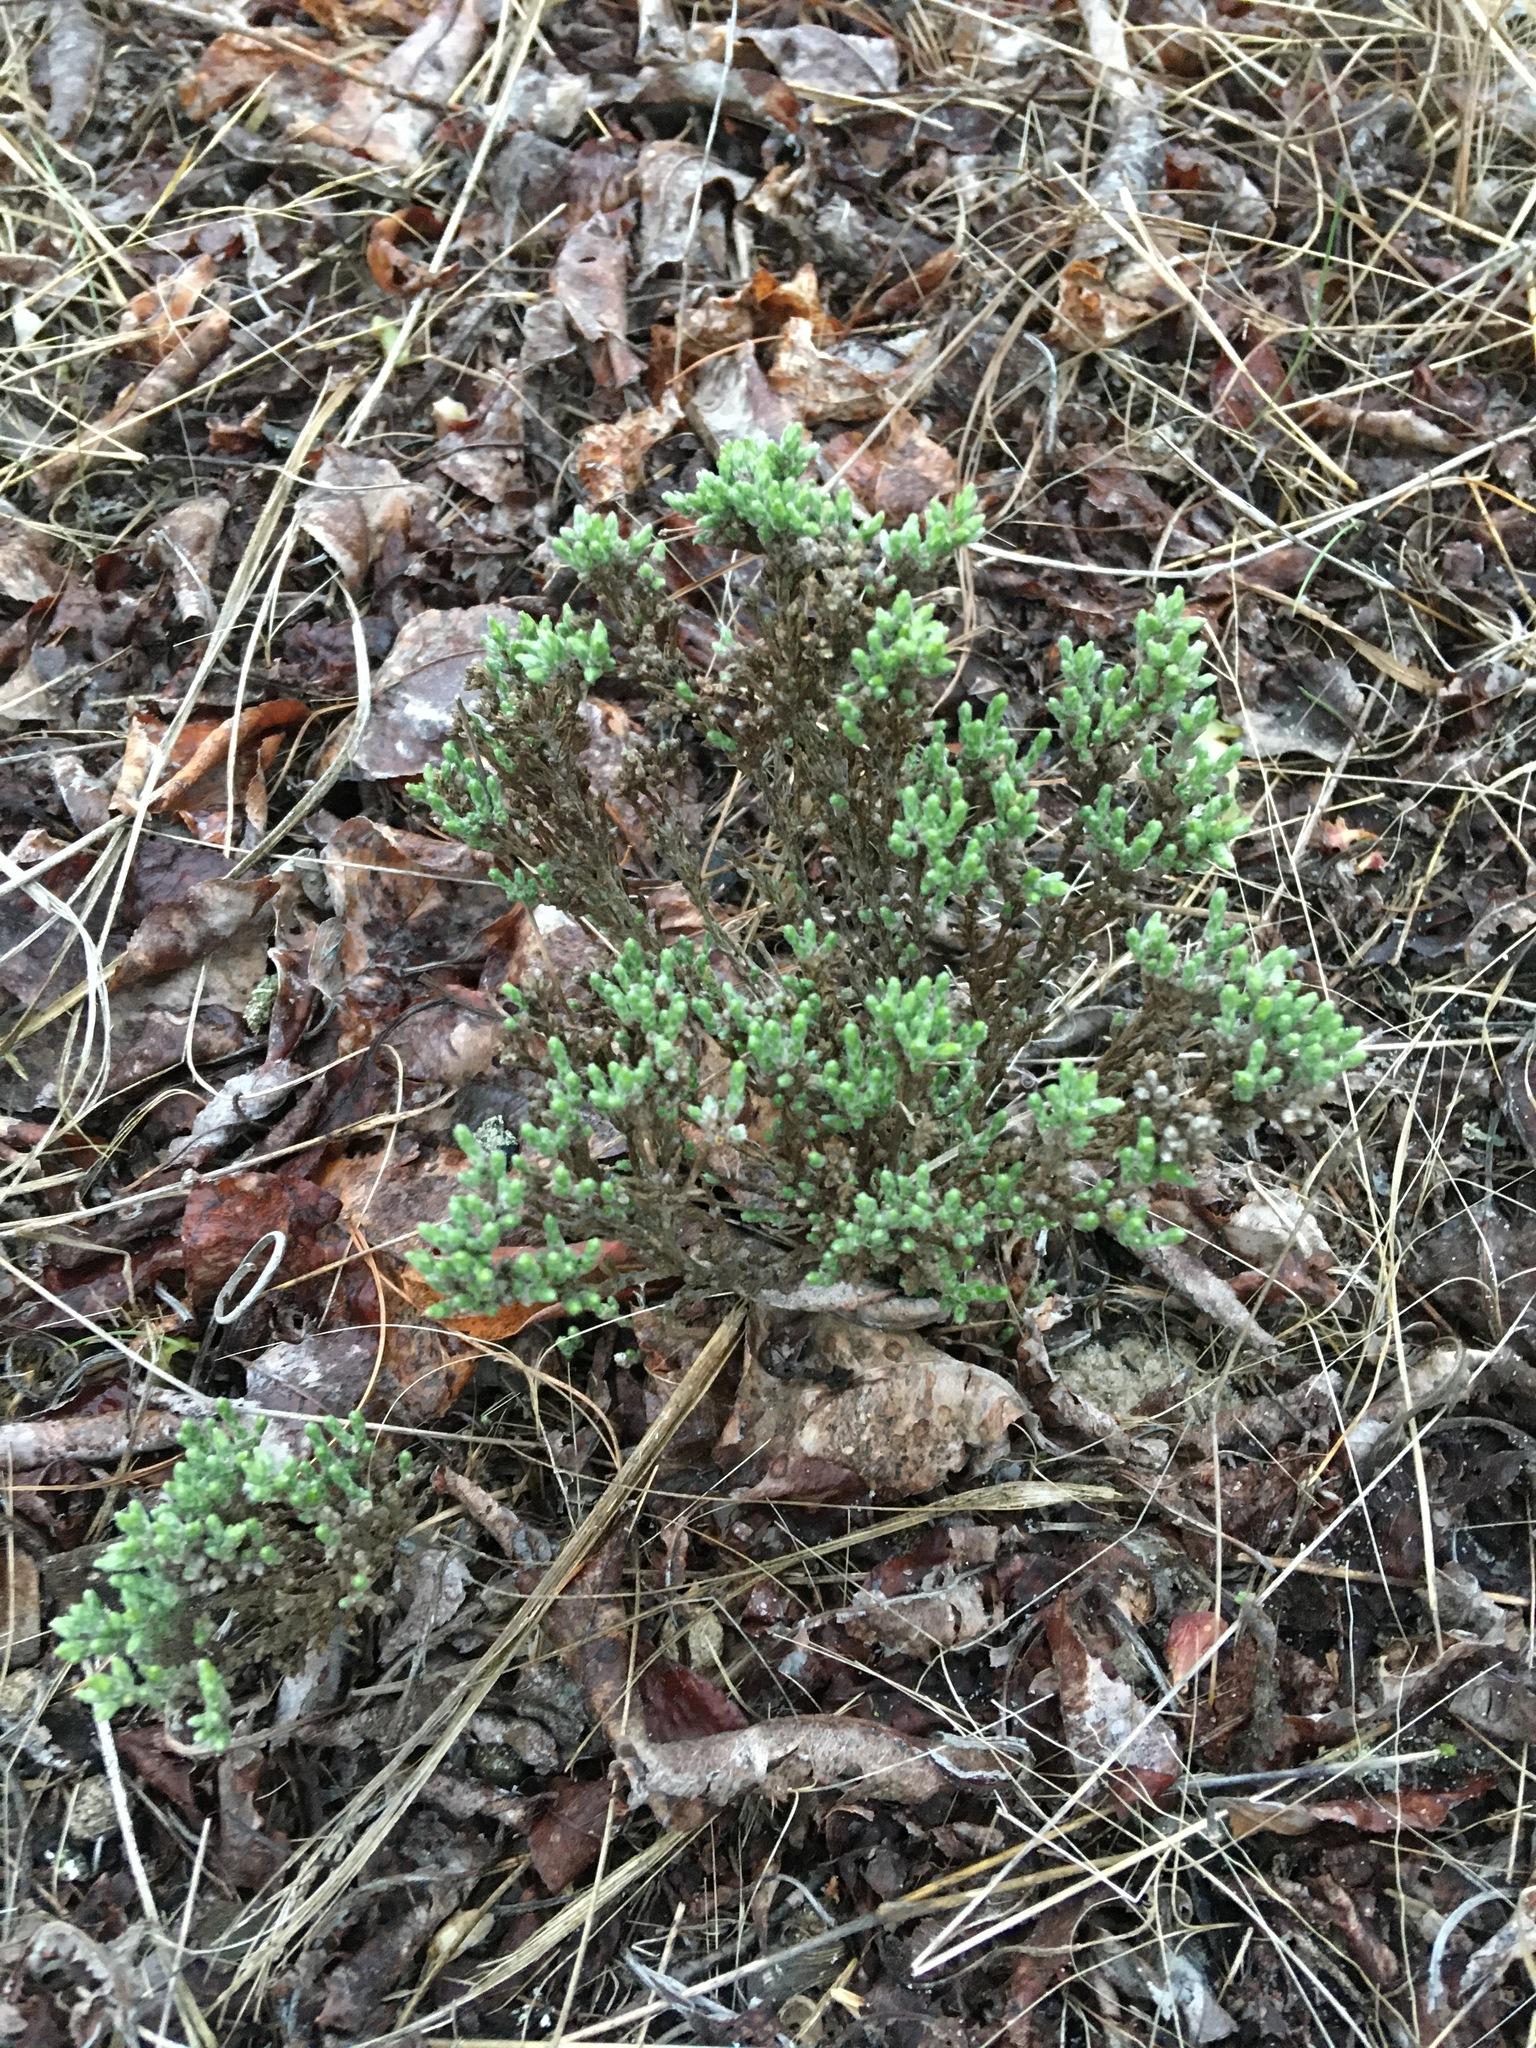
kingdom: Plantae
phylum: Tracheophyta
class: Magnoliopsida
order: Malvales
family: Cistaceae
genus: Hudsonia
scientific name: Hudsonia tomentosa
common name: Beach-heath
